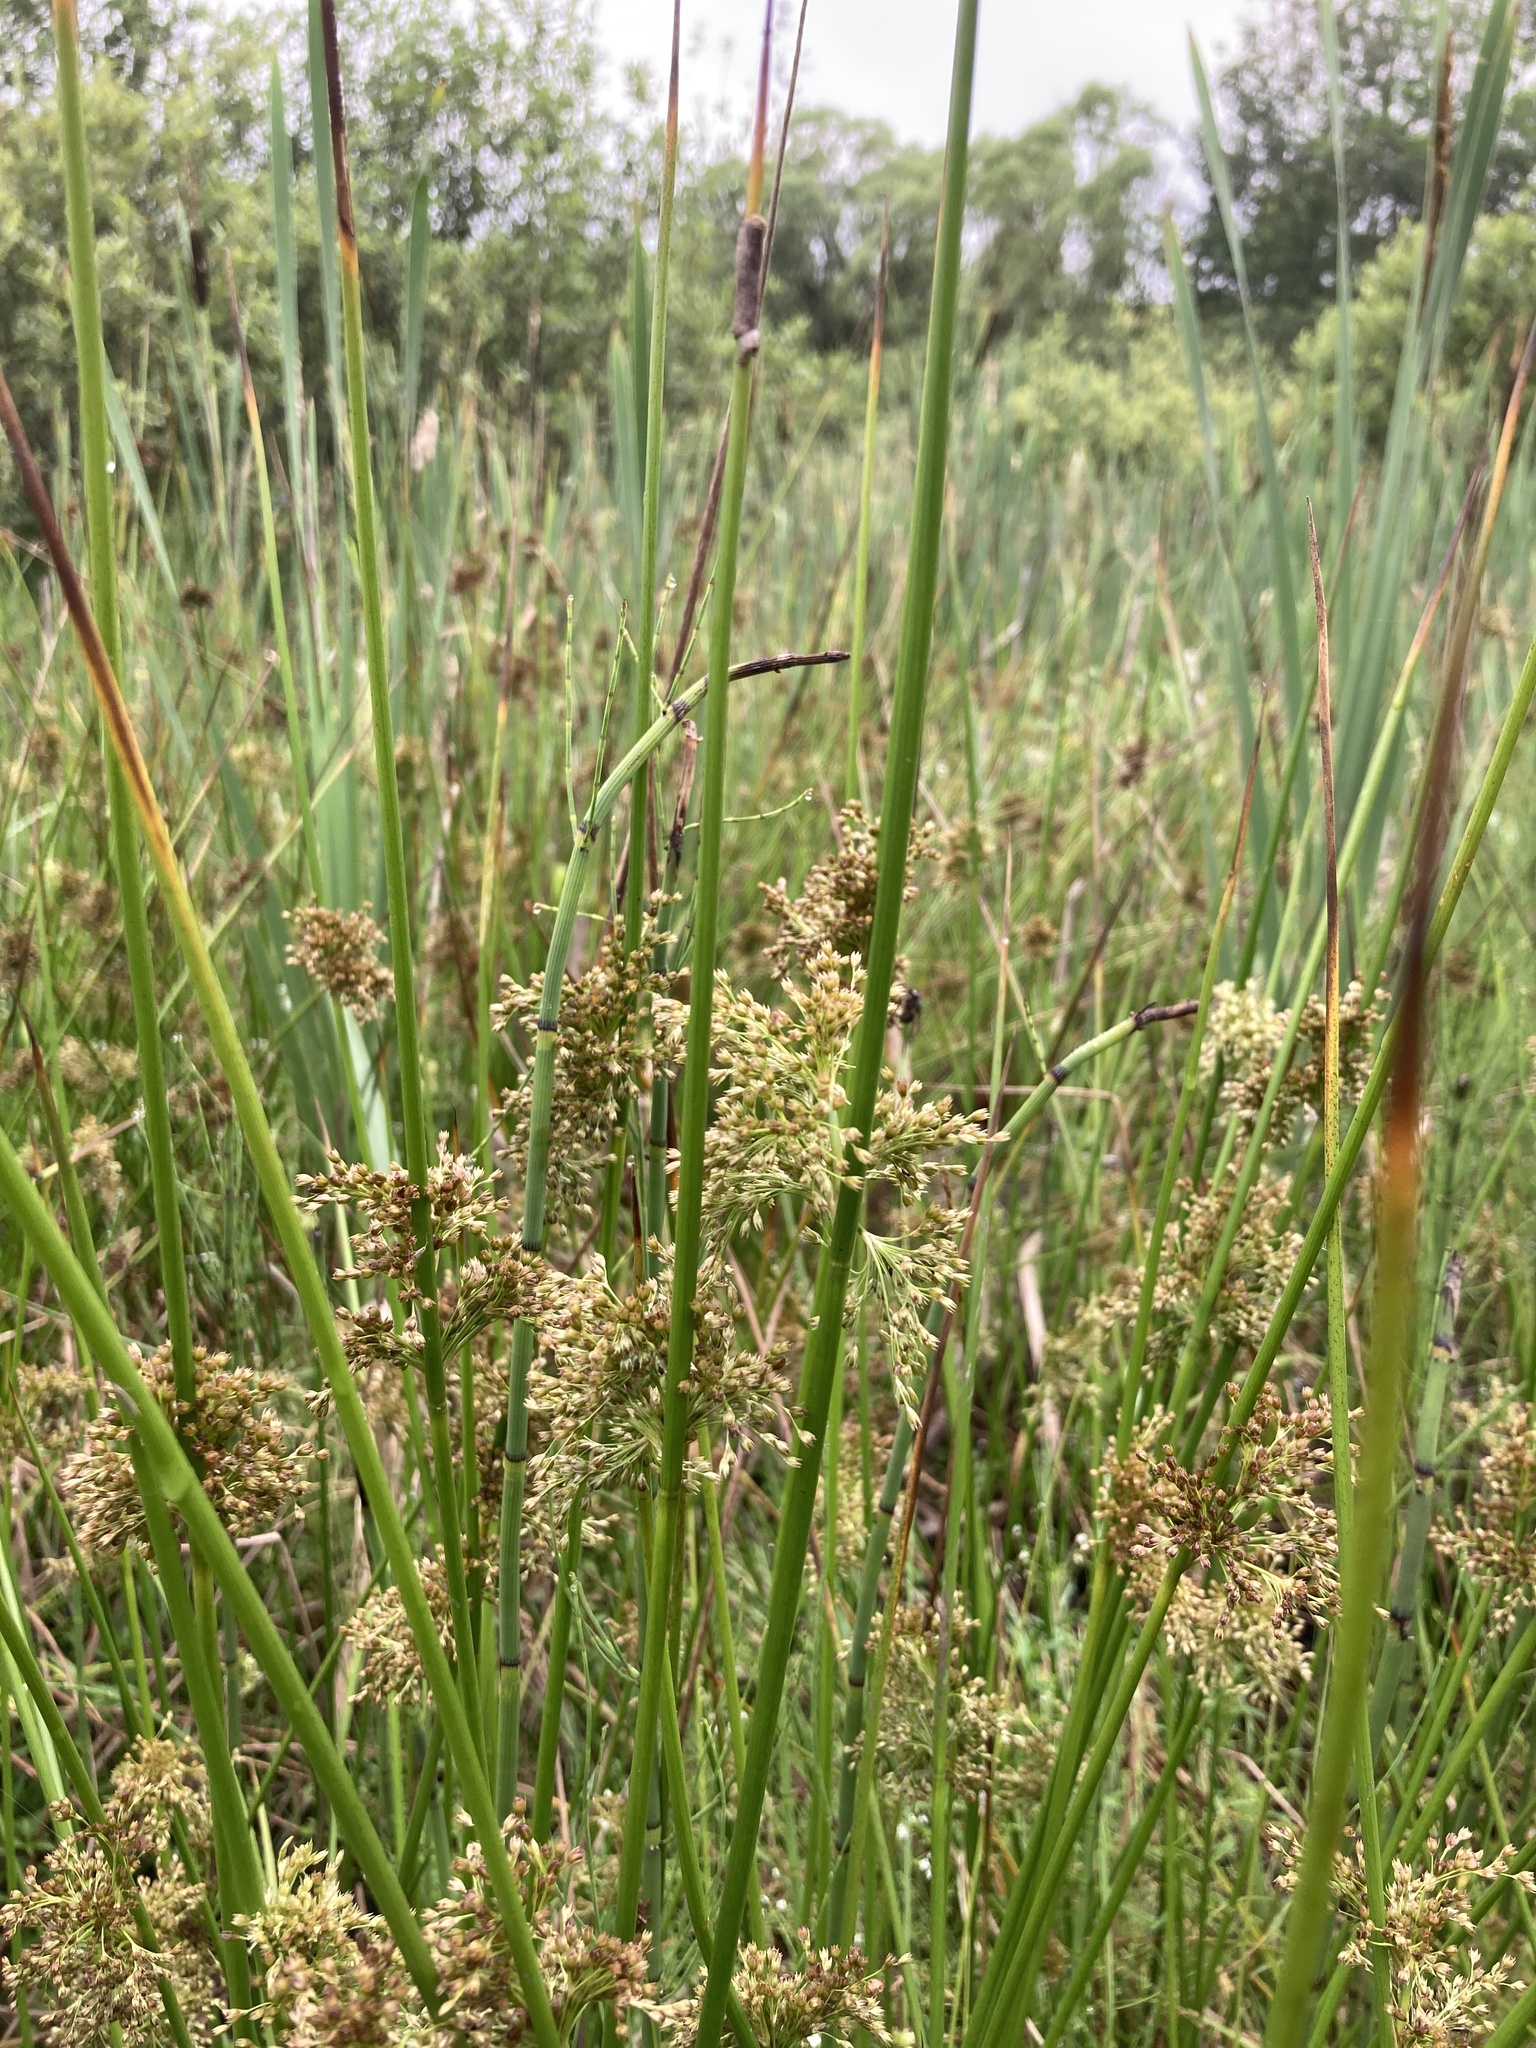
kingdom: Plantae
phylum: Tracheophyta
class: Liliopsida
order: Poales
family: Juncaceae
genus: Juncus
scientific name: Juncus effusus
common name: Soft rush
